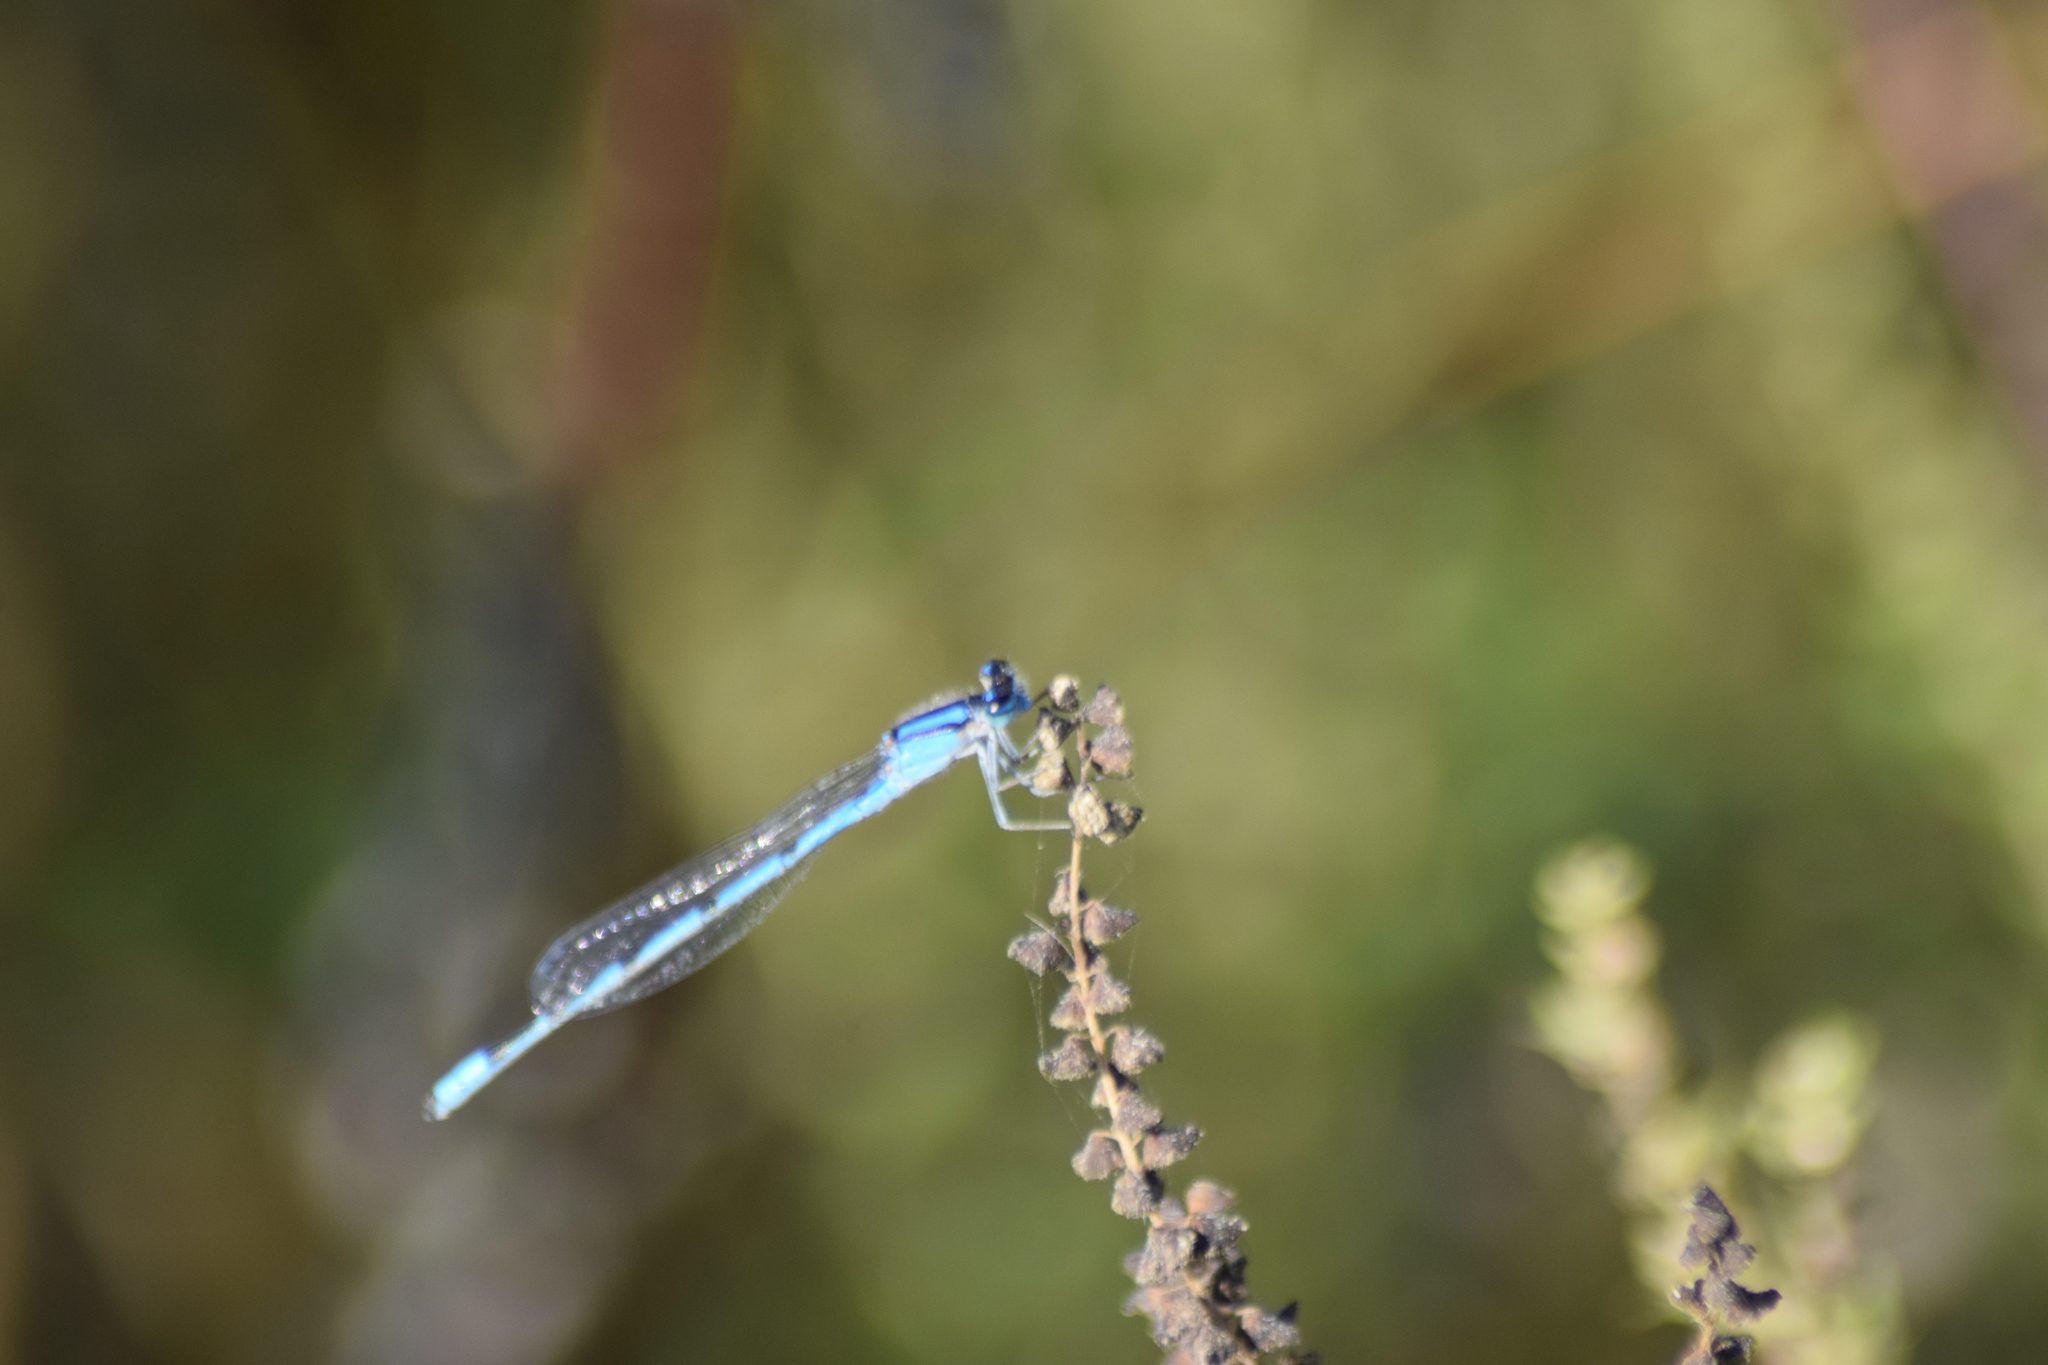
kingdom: Animalia
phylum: Arthropoda
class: Insecta
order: Odonata
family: Coenagrionidae
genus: Enallagma
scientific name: Enallagma civile
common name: Damselfly
